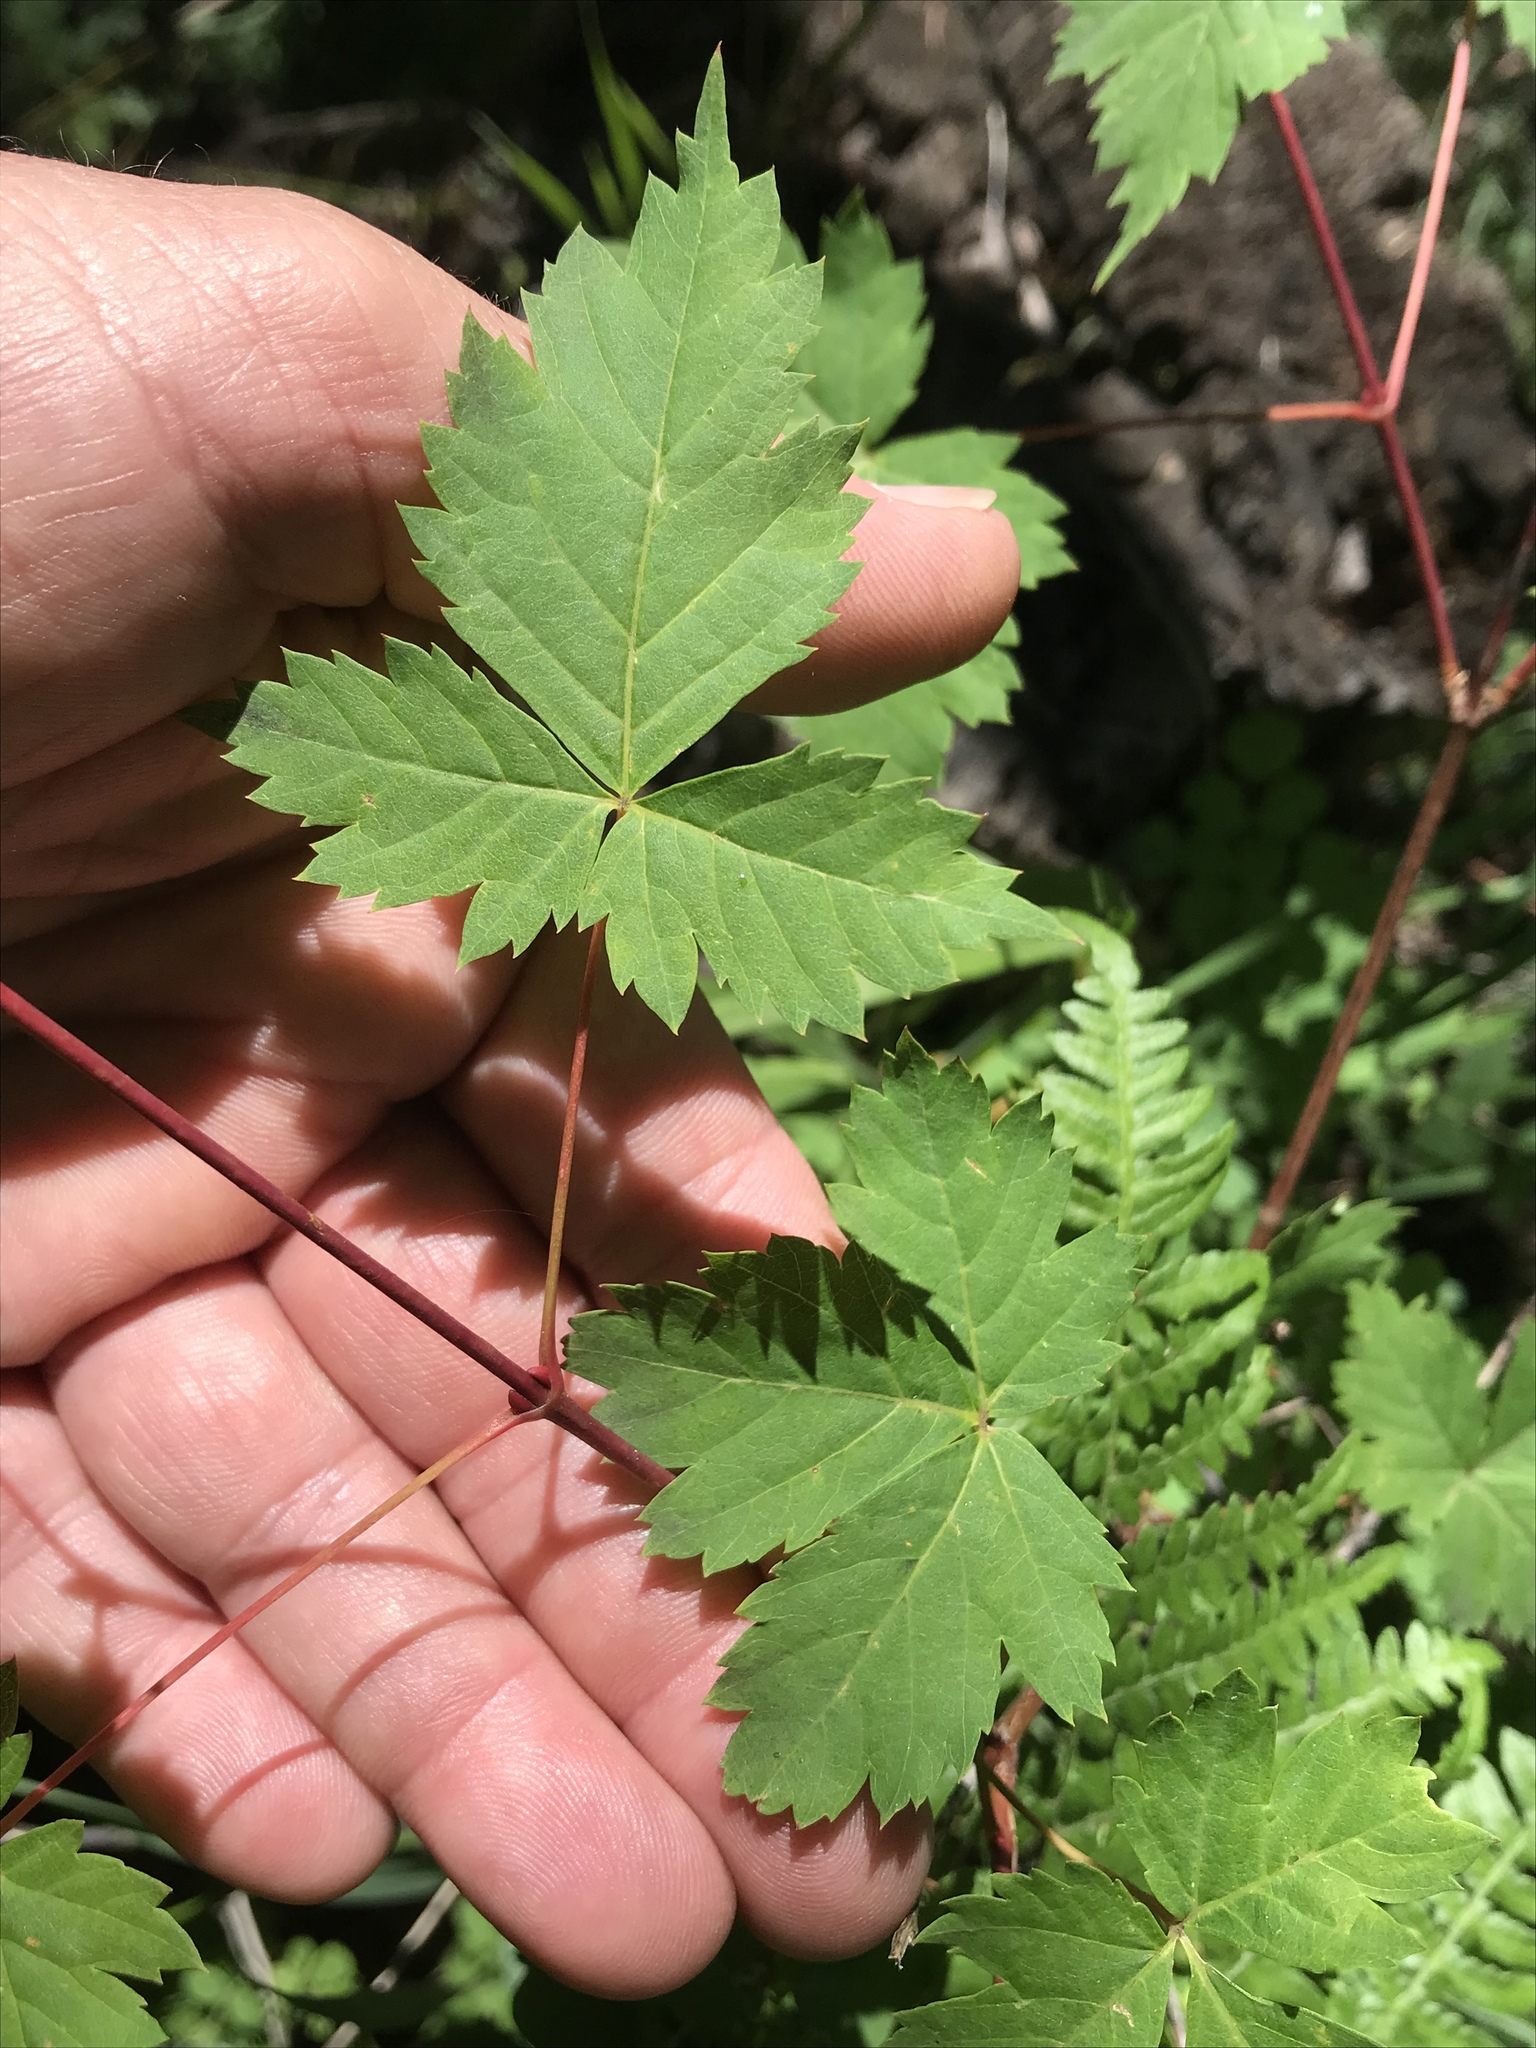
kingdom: Plantae
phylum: Tracheophyta
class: Magnoliopsida
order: Sapindales
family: Sapindaceae
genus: Acer
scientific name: Acer glabrum
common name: Rocky mountain maple
